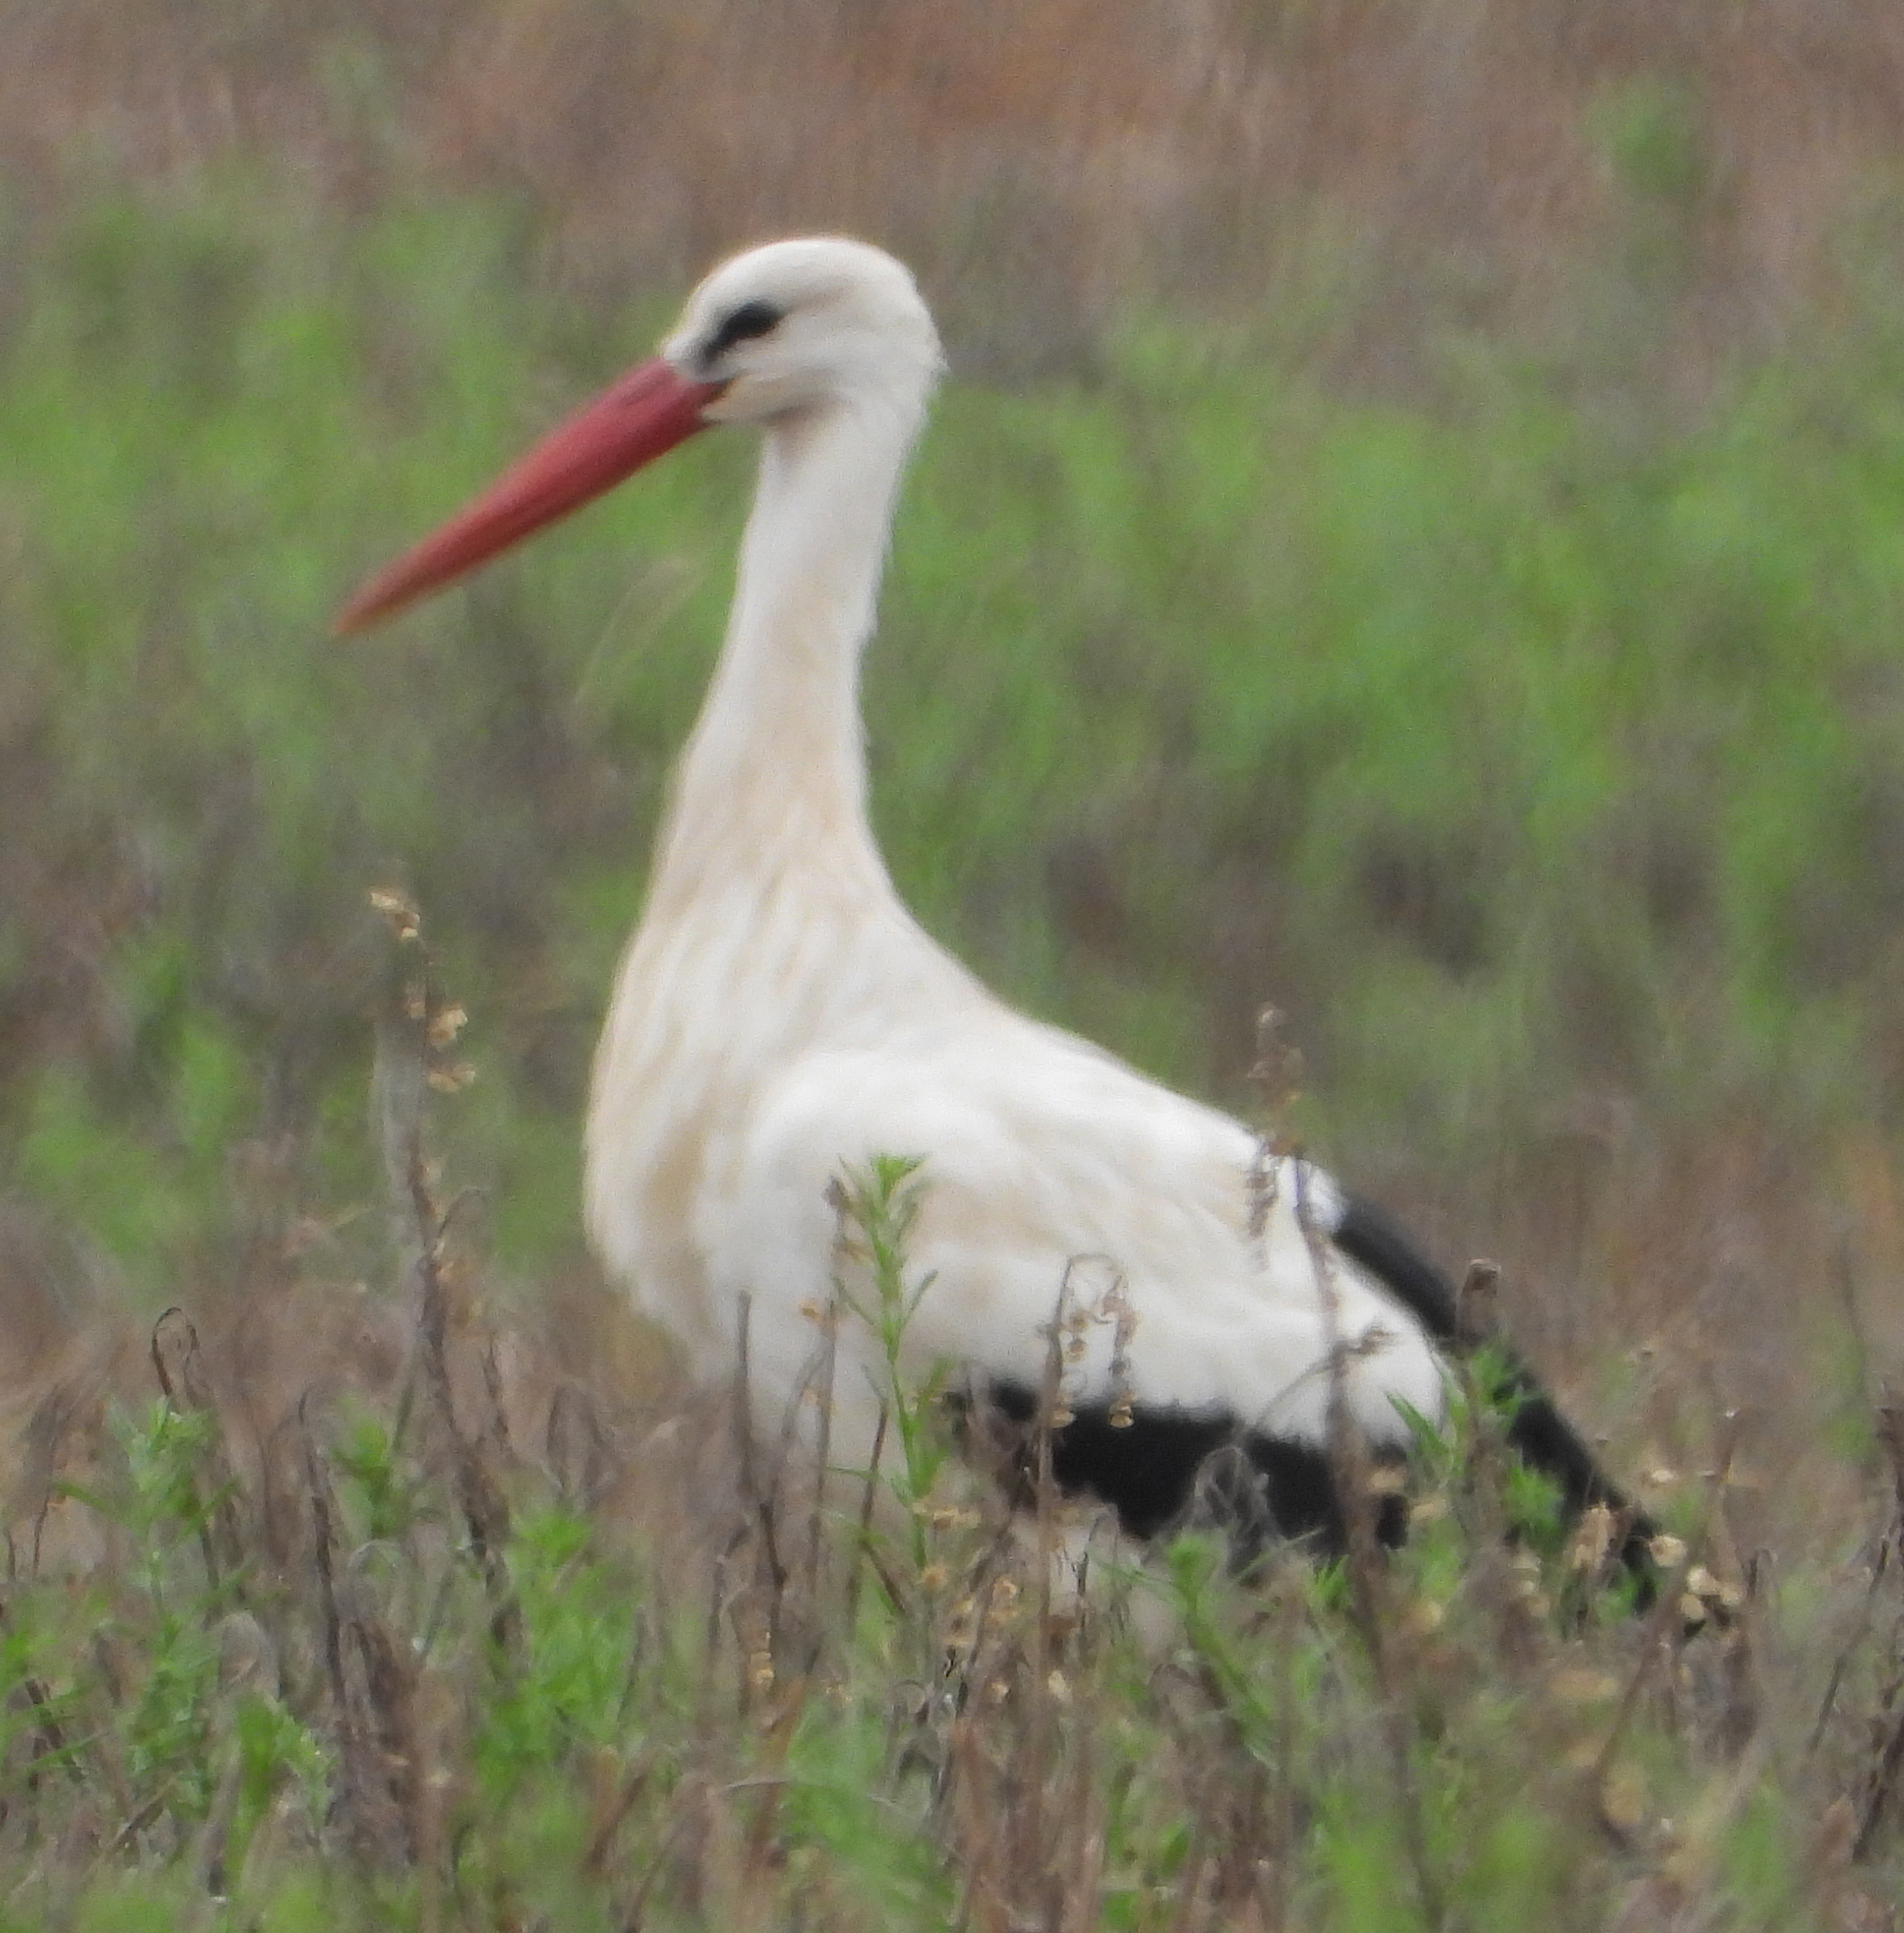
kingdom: Animalia
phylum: Chordata
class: Aves
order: Ciconiiformes
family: Ciconiidae
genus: Ciconia
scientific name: Ciconia ciconia
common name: White stork
